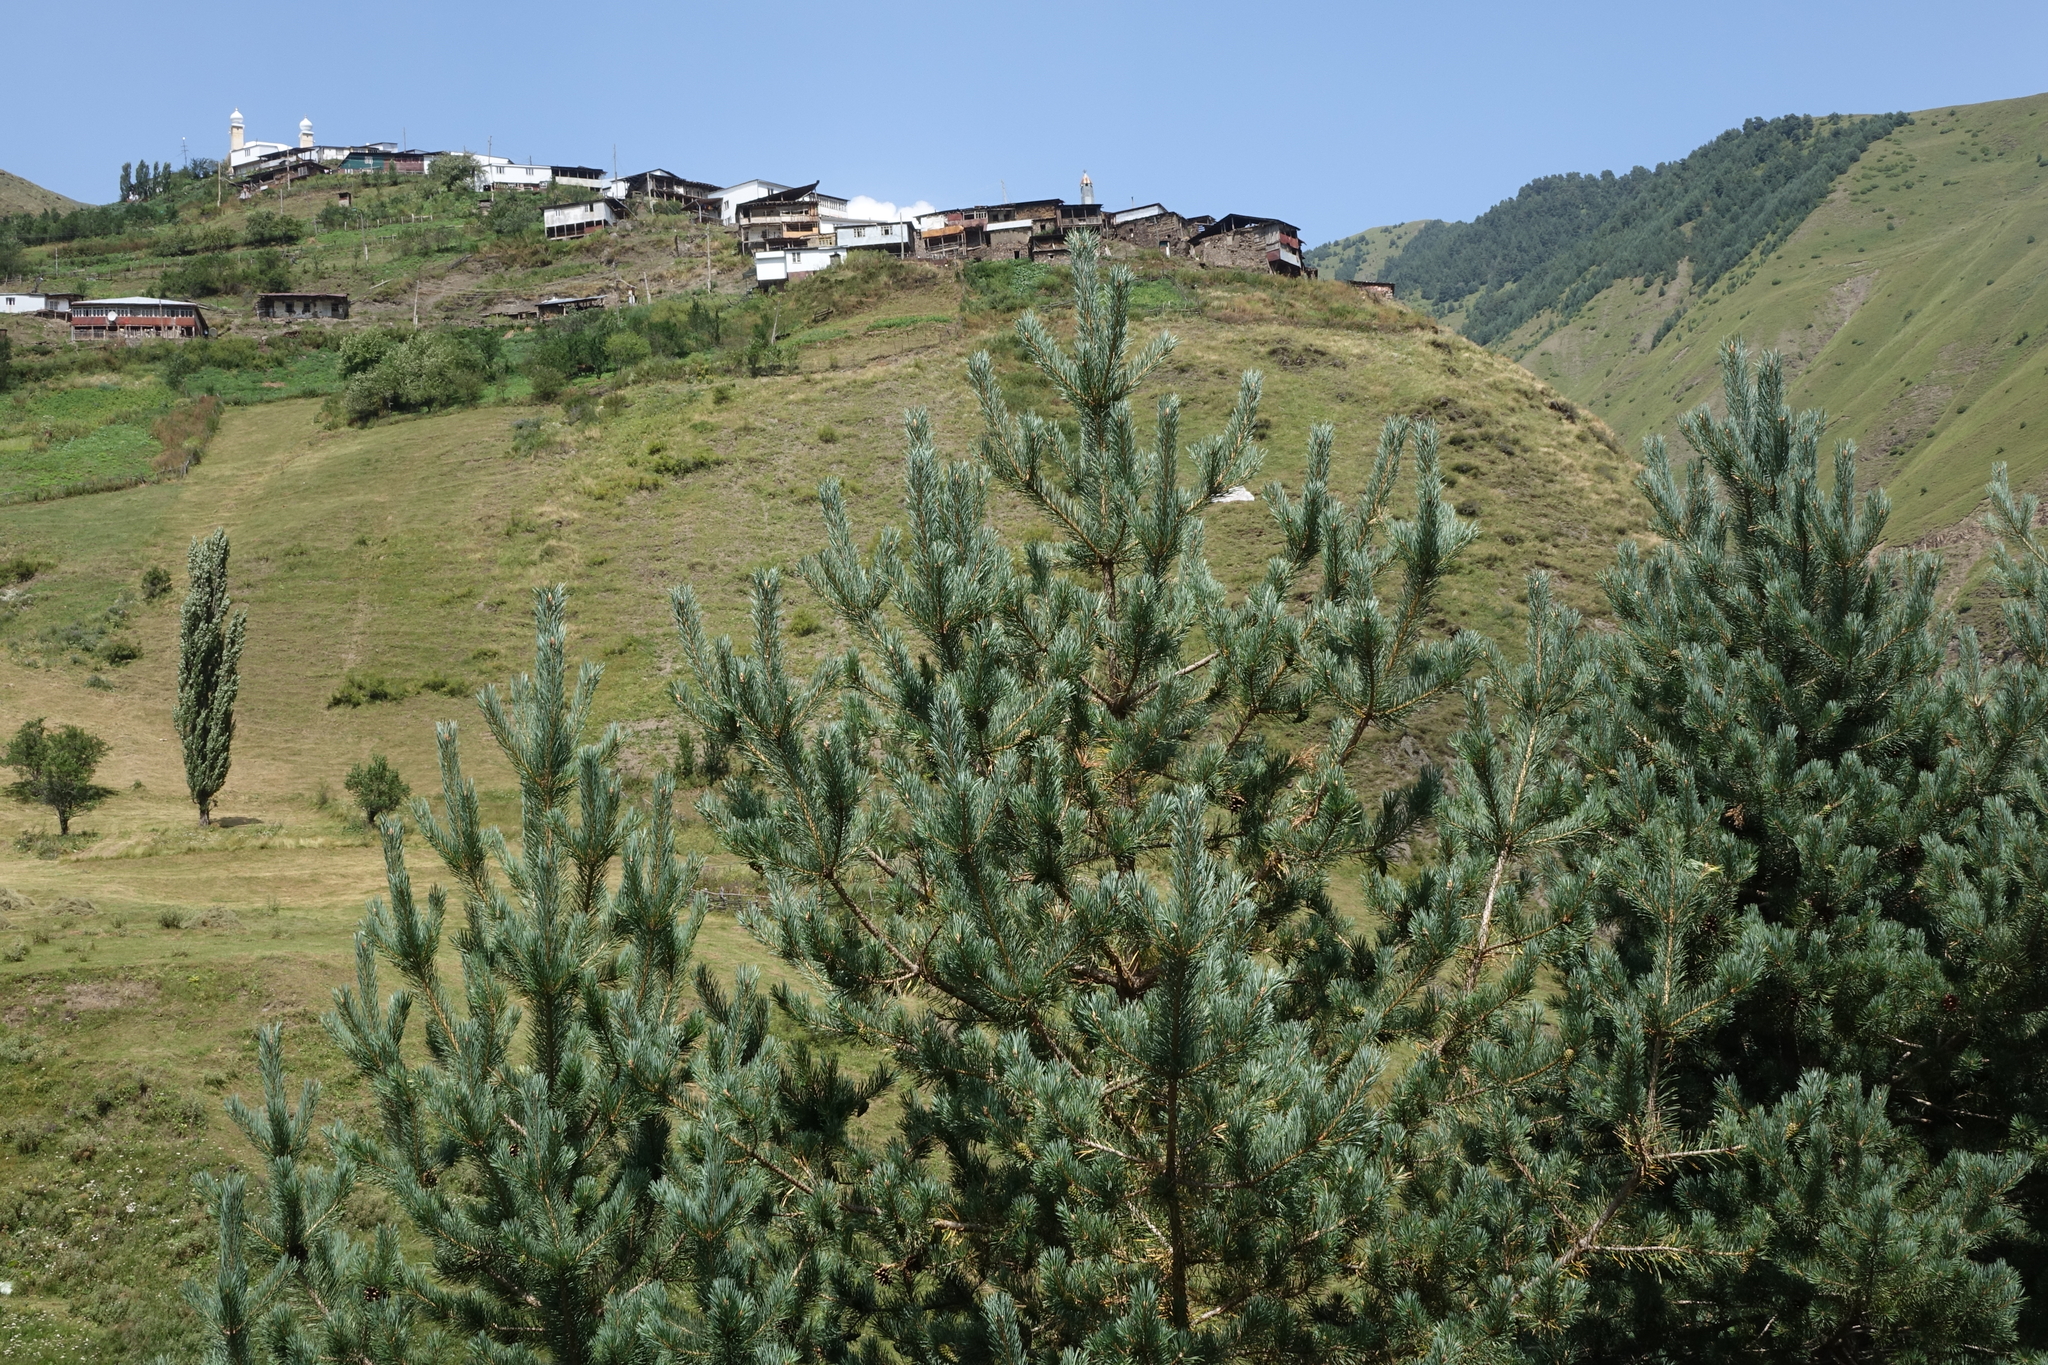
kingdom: Plantae
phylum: Tracheophyta
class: Pinopsida
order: Pinales
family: Pinaceae
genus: Pinus
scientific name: Pinus sylvestris
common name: Scots pine
